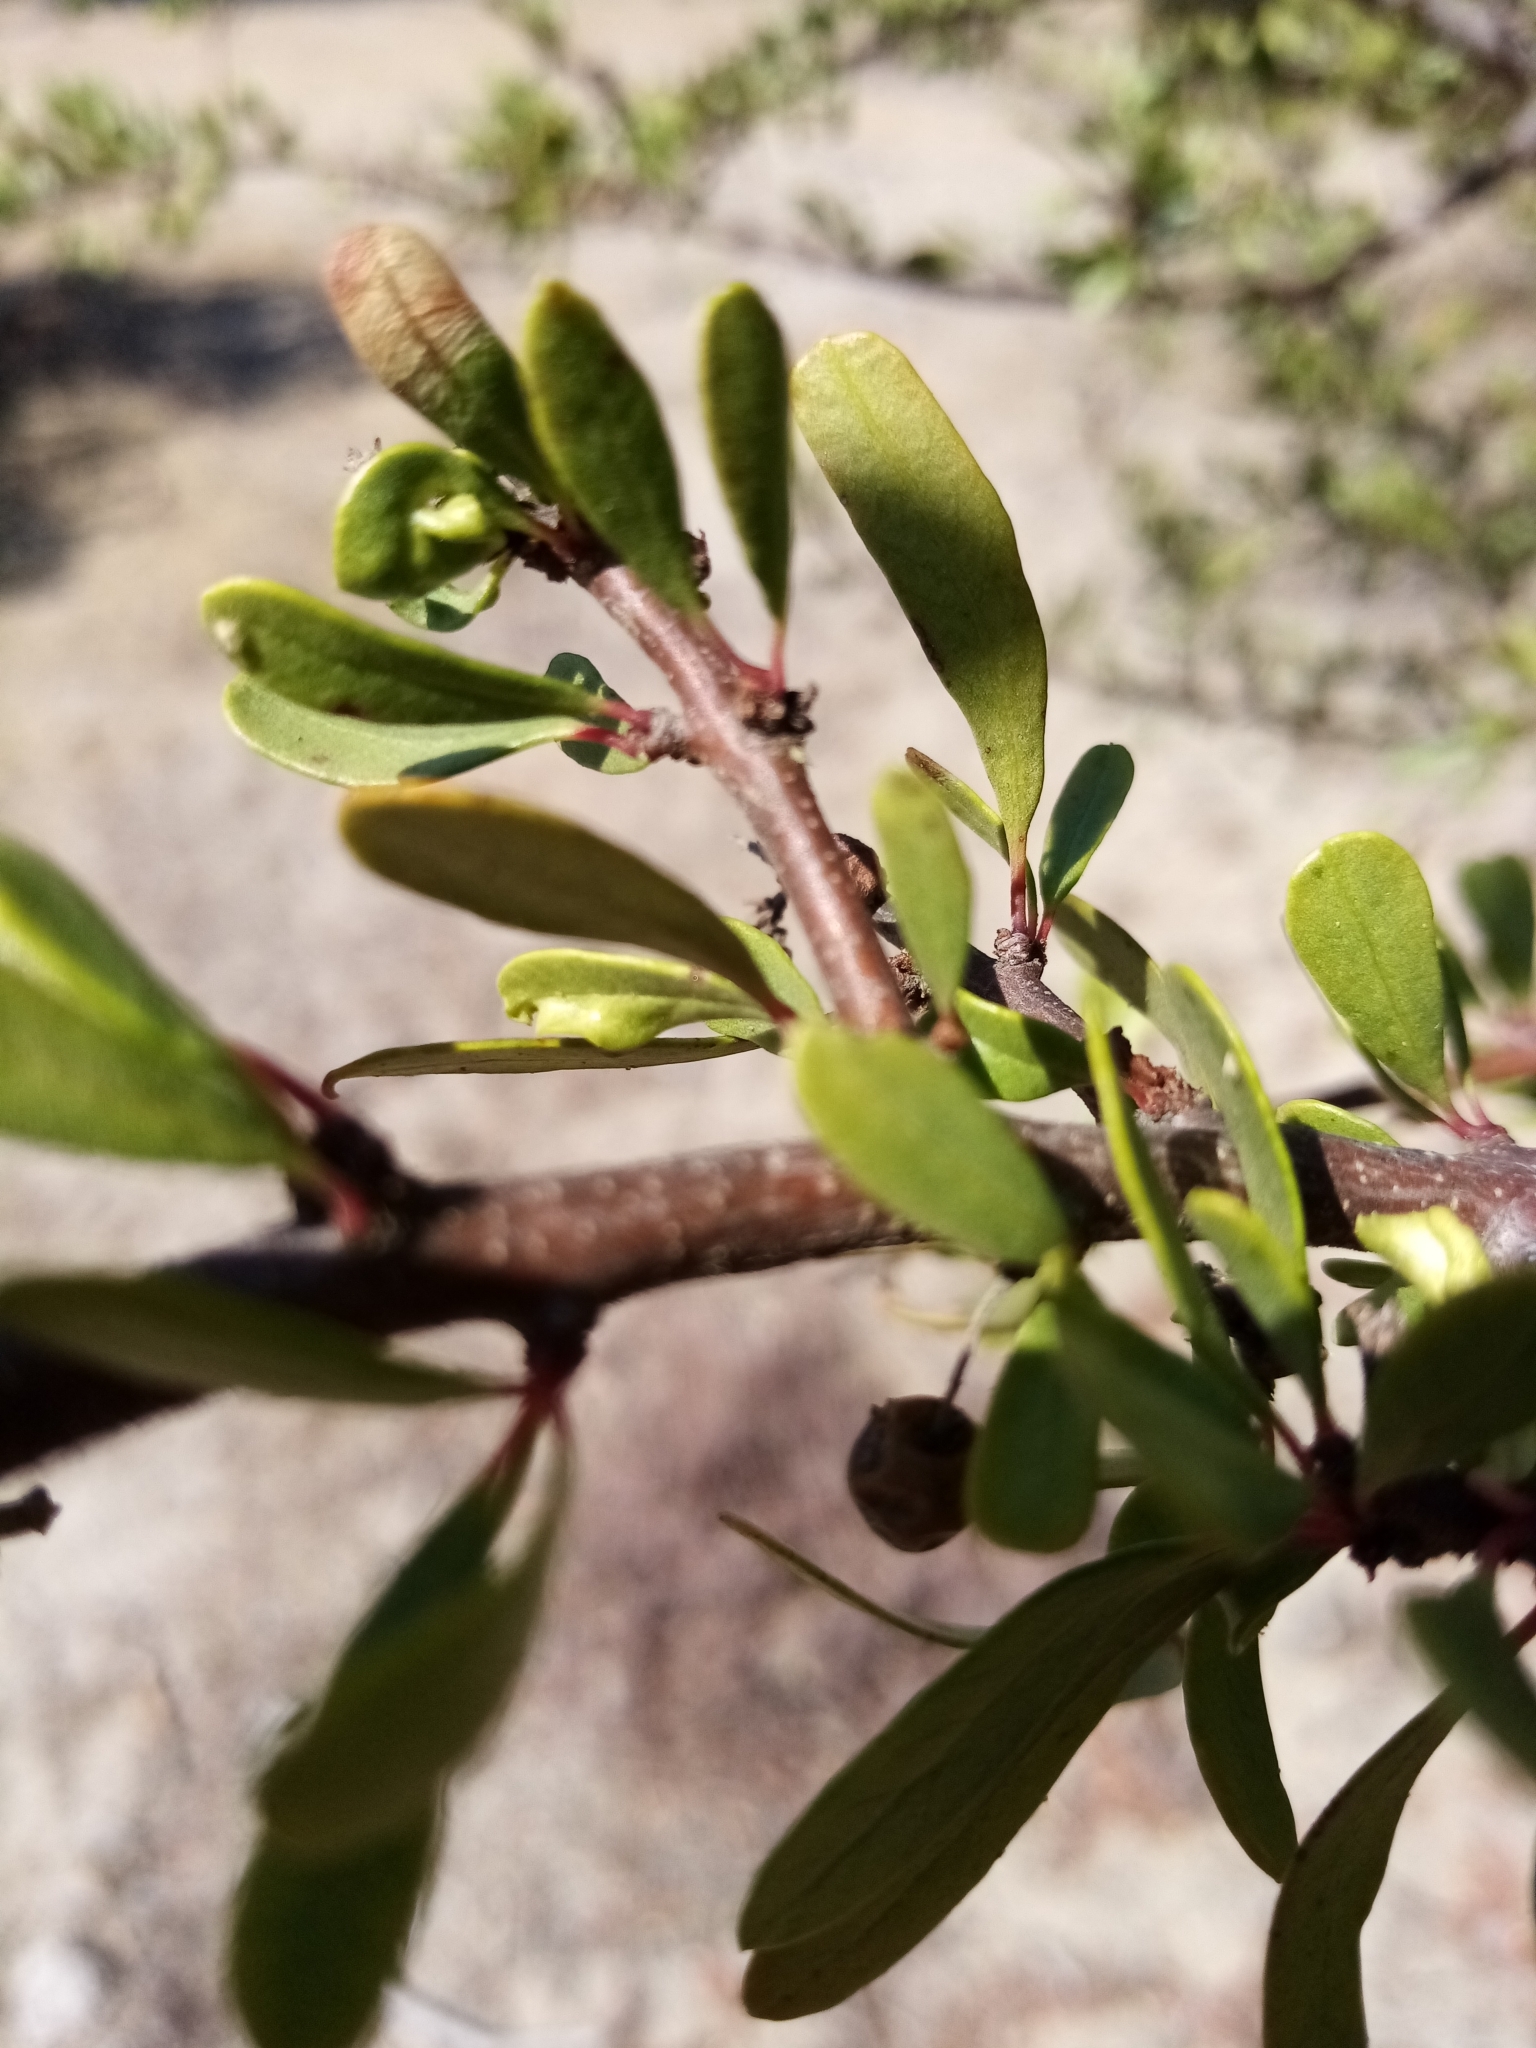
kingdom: Plantae
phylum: Tracheophyta
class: Magnoliopsida
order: Sapindales
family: Anacardiaceae
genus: Schinus
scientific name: Schinus polygama
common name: Hardee peppertree
